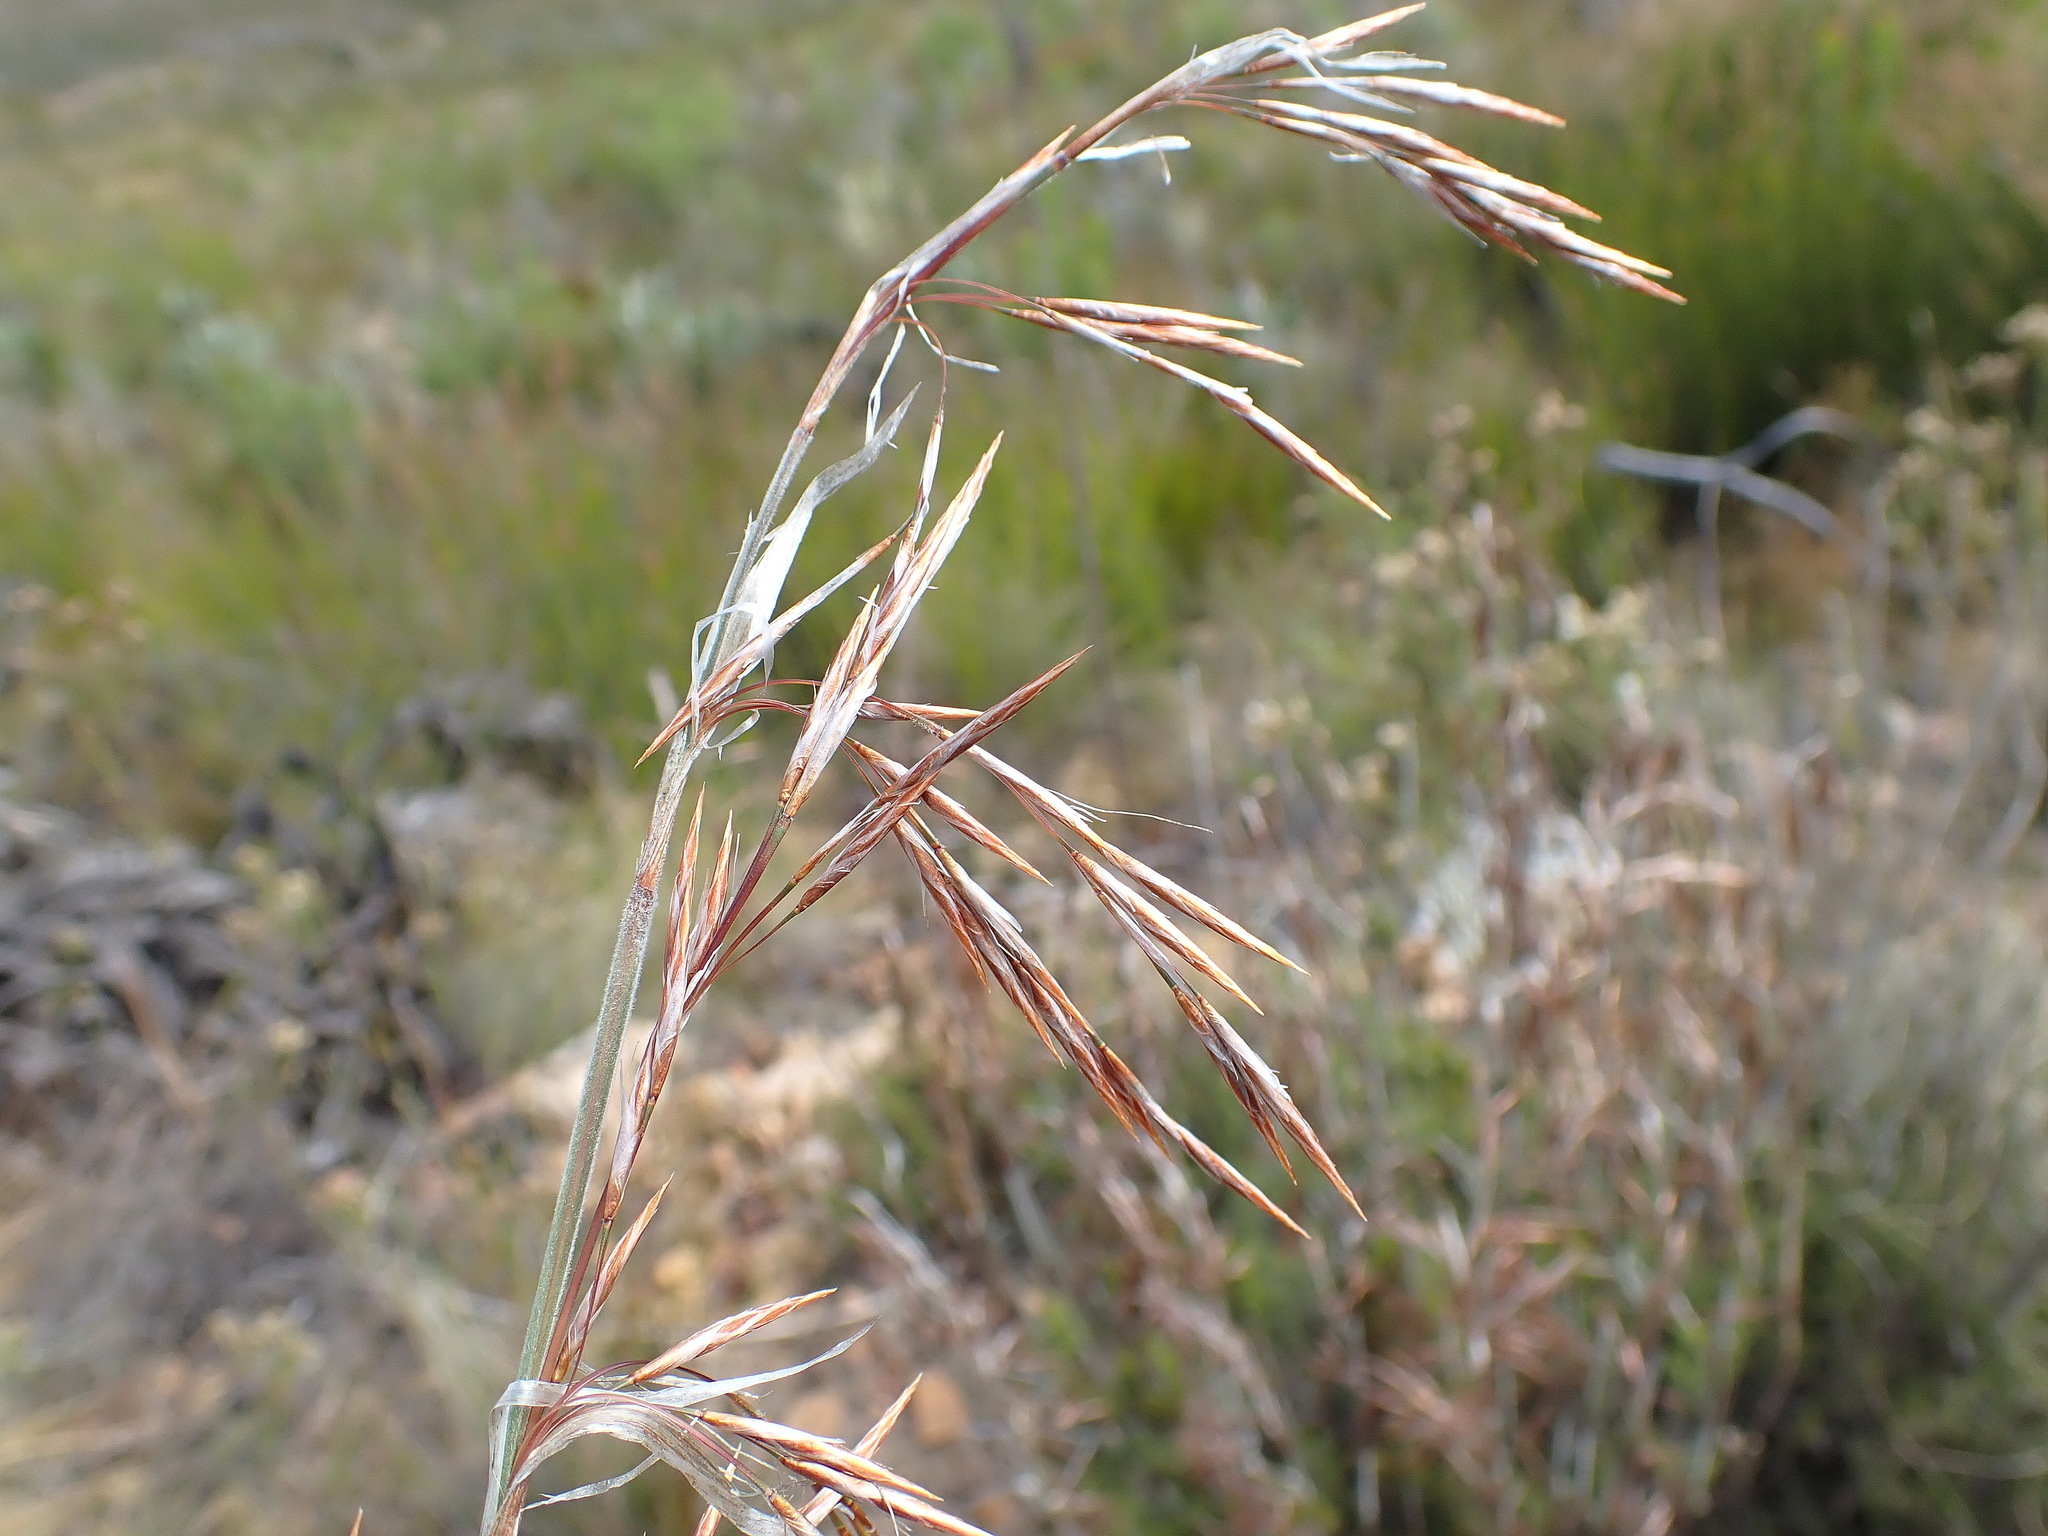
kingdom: Plantae
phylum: Tracheophyta
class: Liliopsida
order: Poales
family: Restionaceae
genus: Thamnochortus
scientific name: Thamnochortus rigidus
